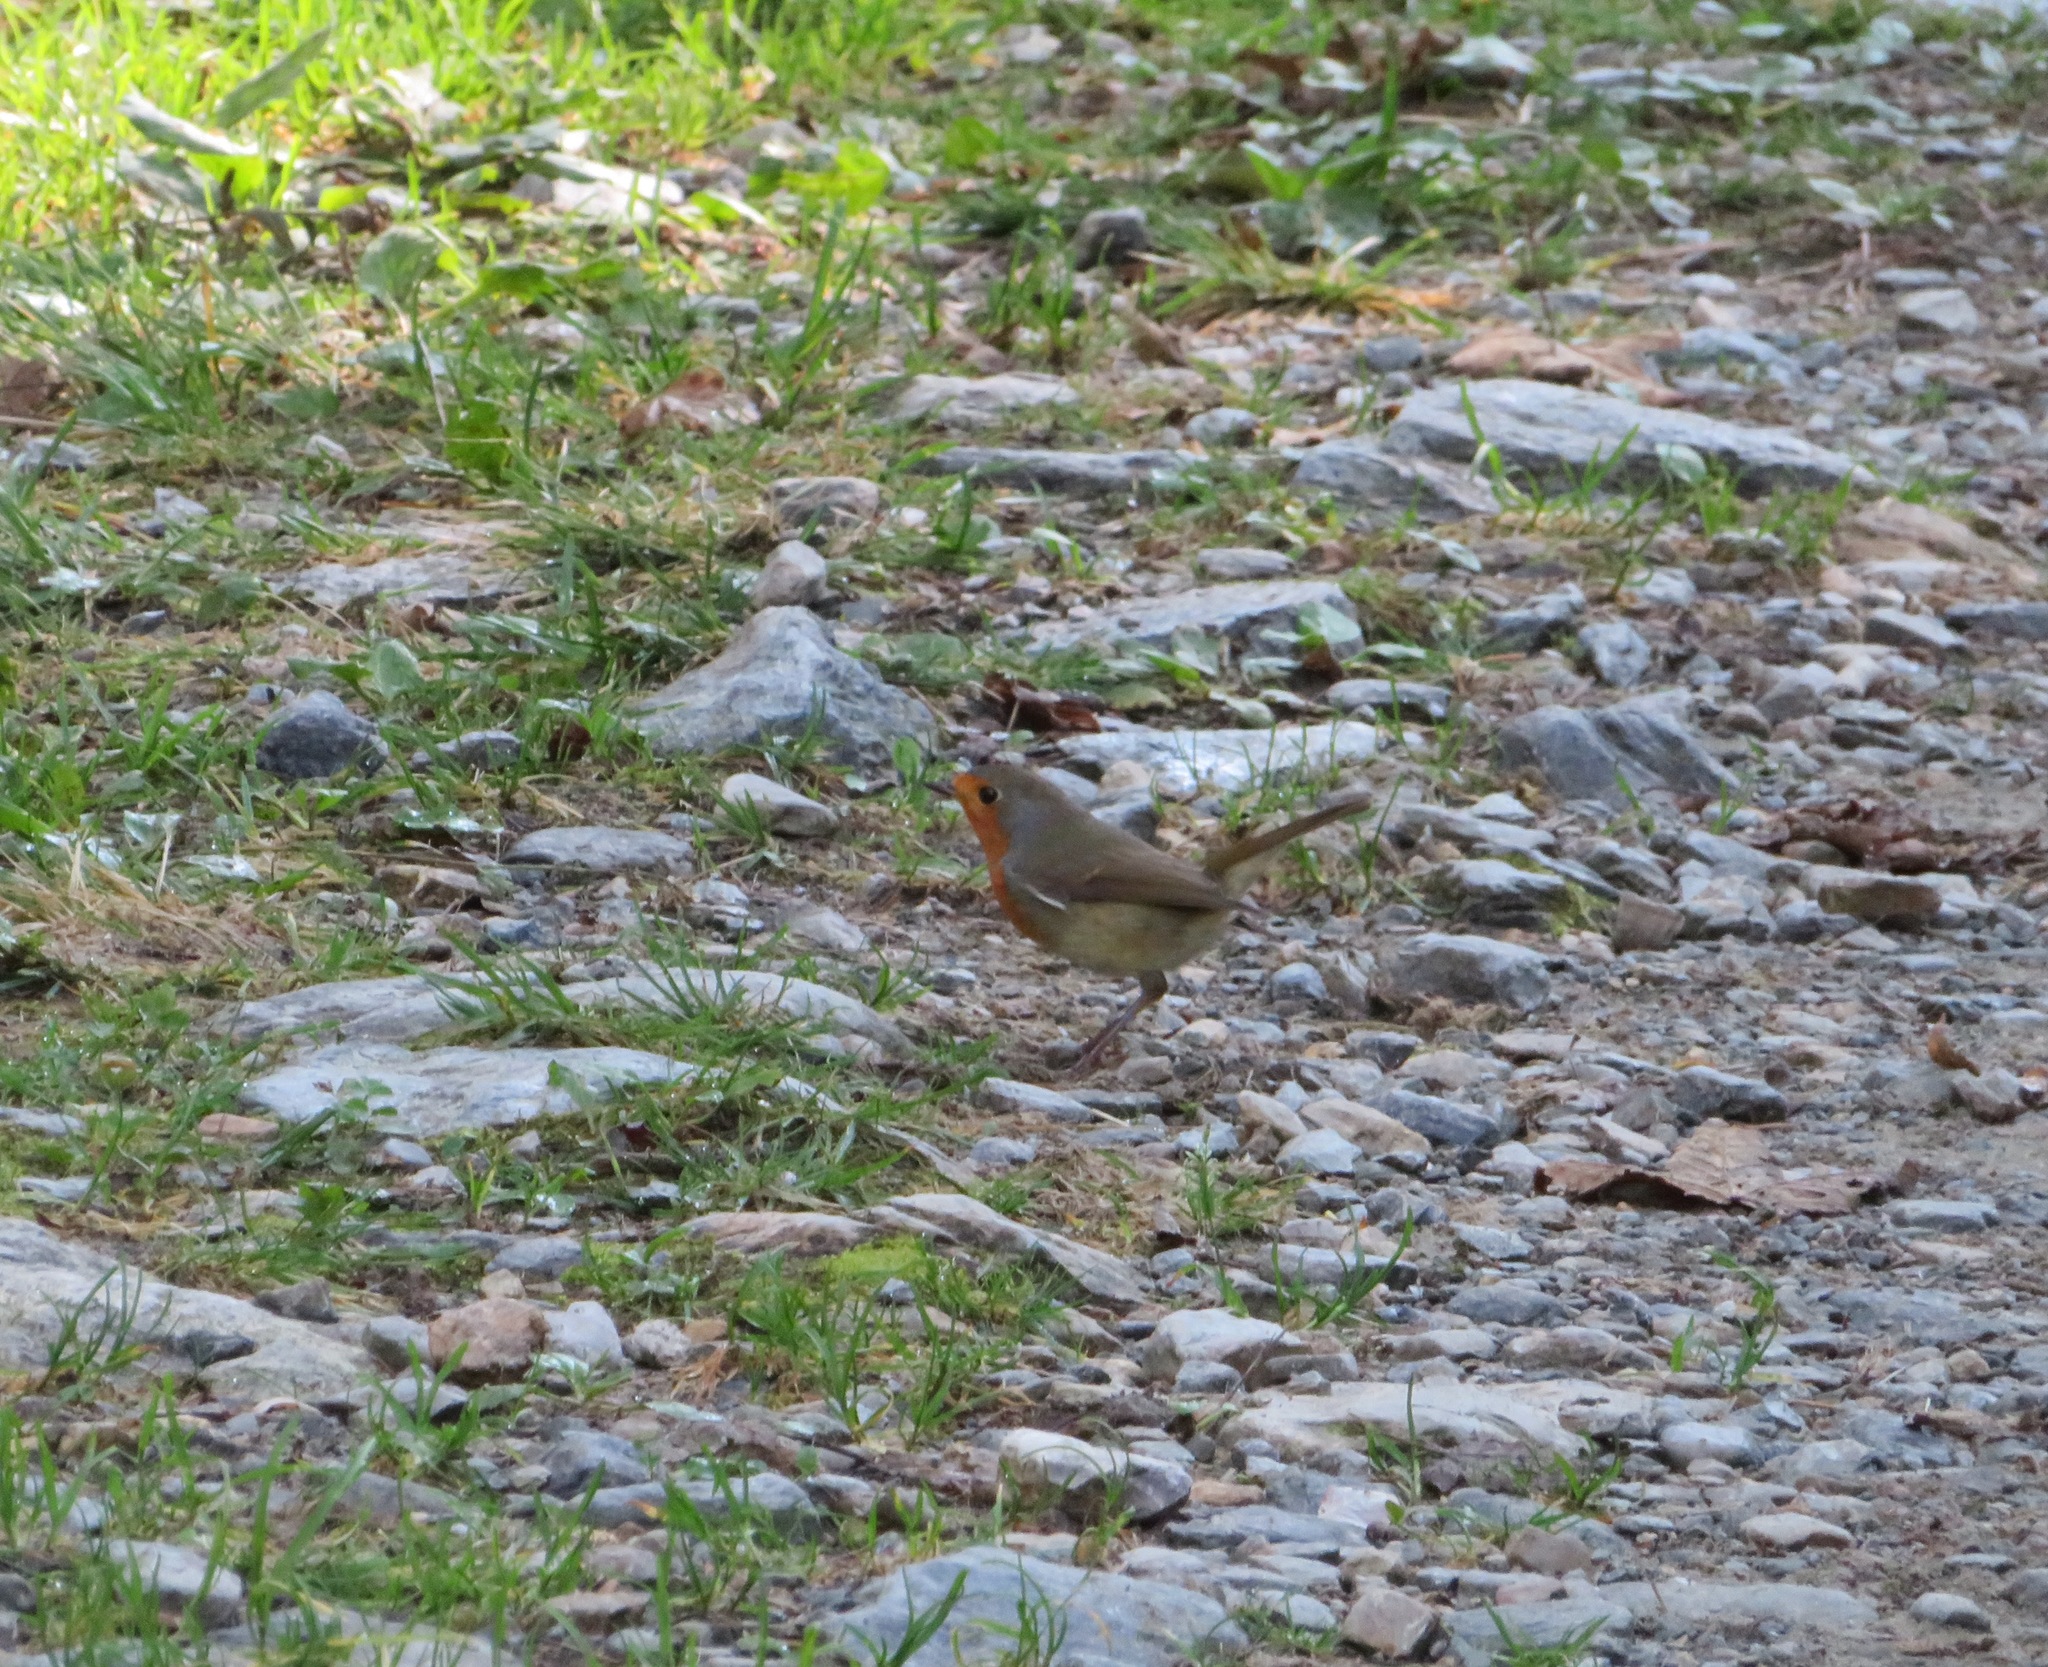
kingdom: Animalia
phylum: Chordata
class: Aves
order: Passeriformes
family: Muscicapidae
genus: Erithacus
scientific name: Erithacus rubecula
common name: European robin
